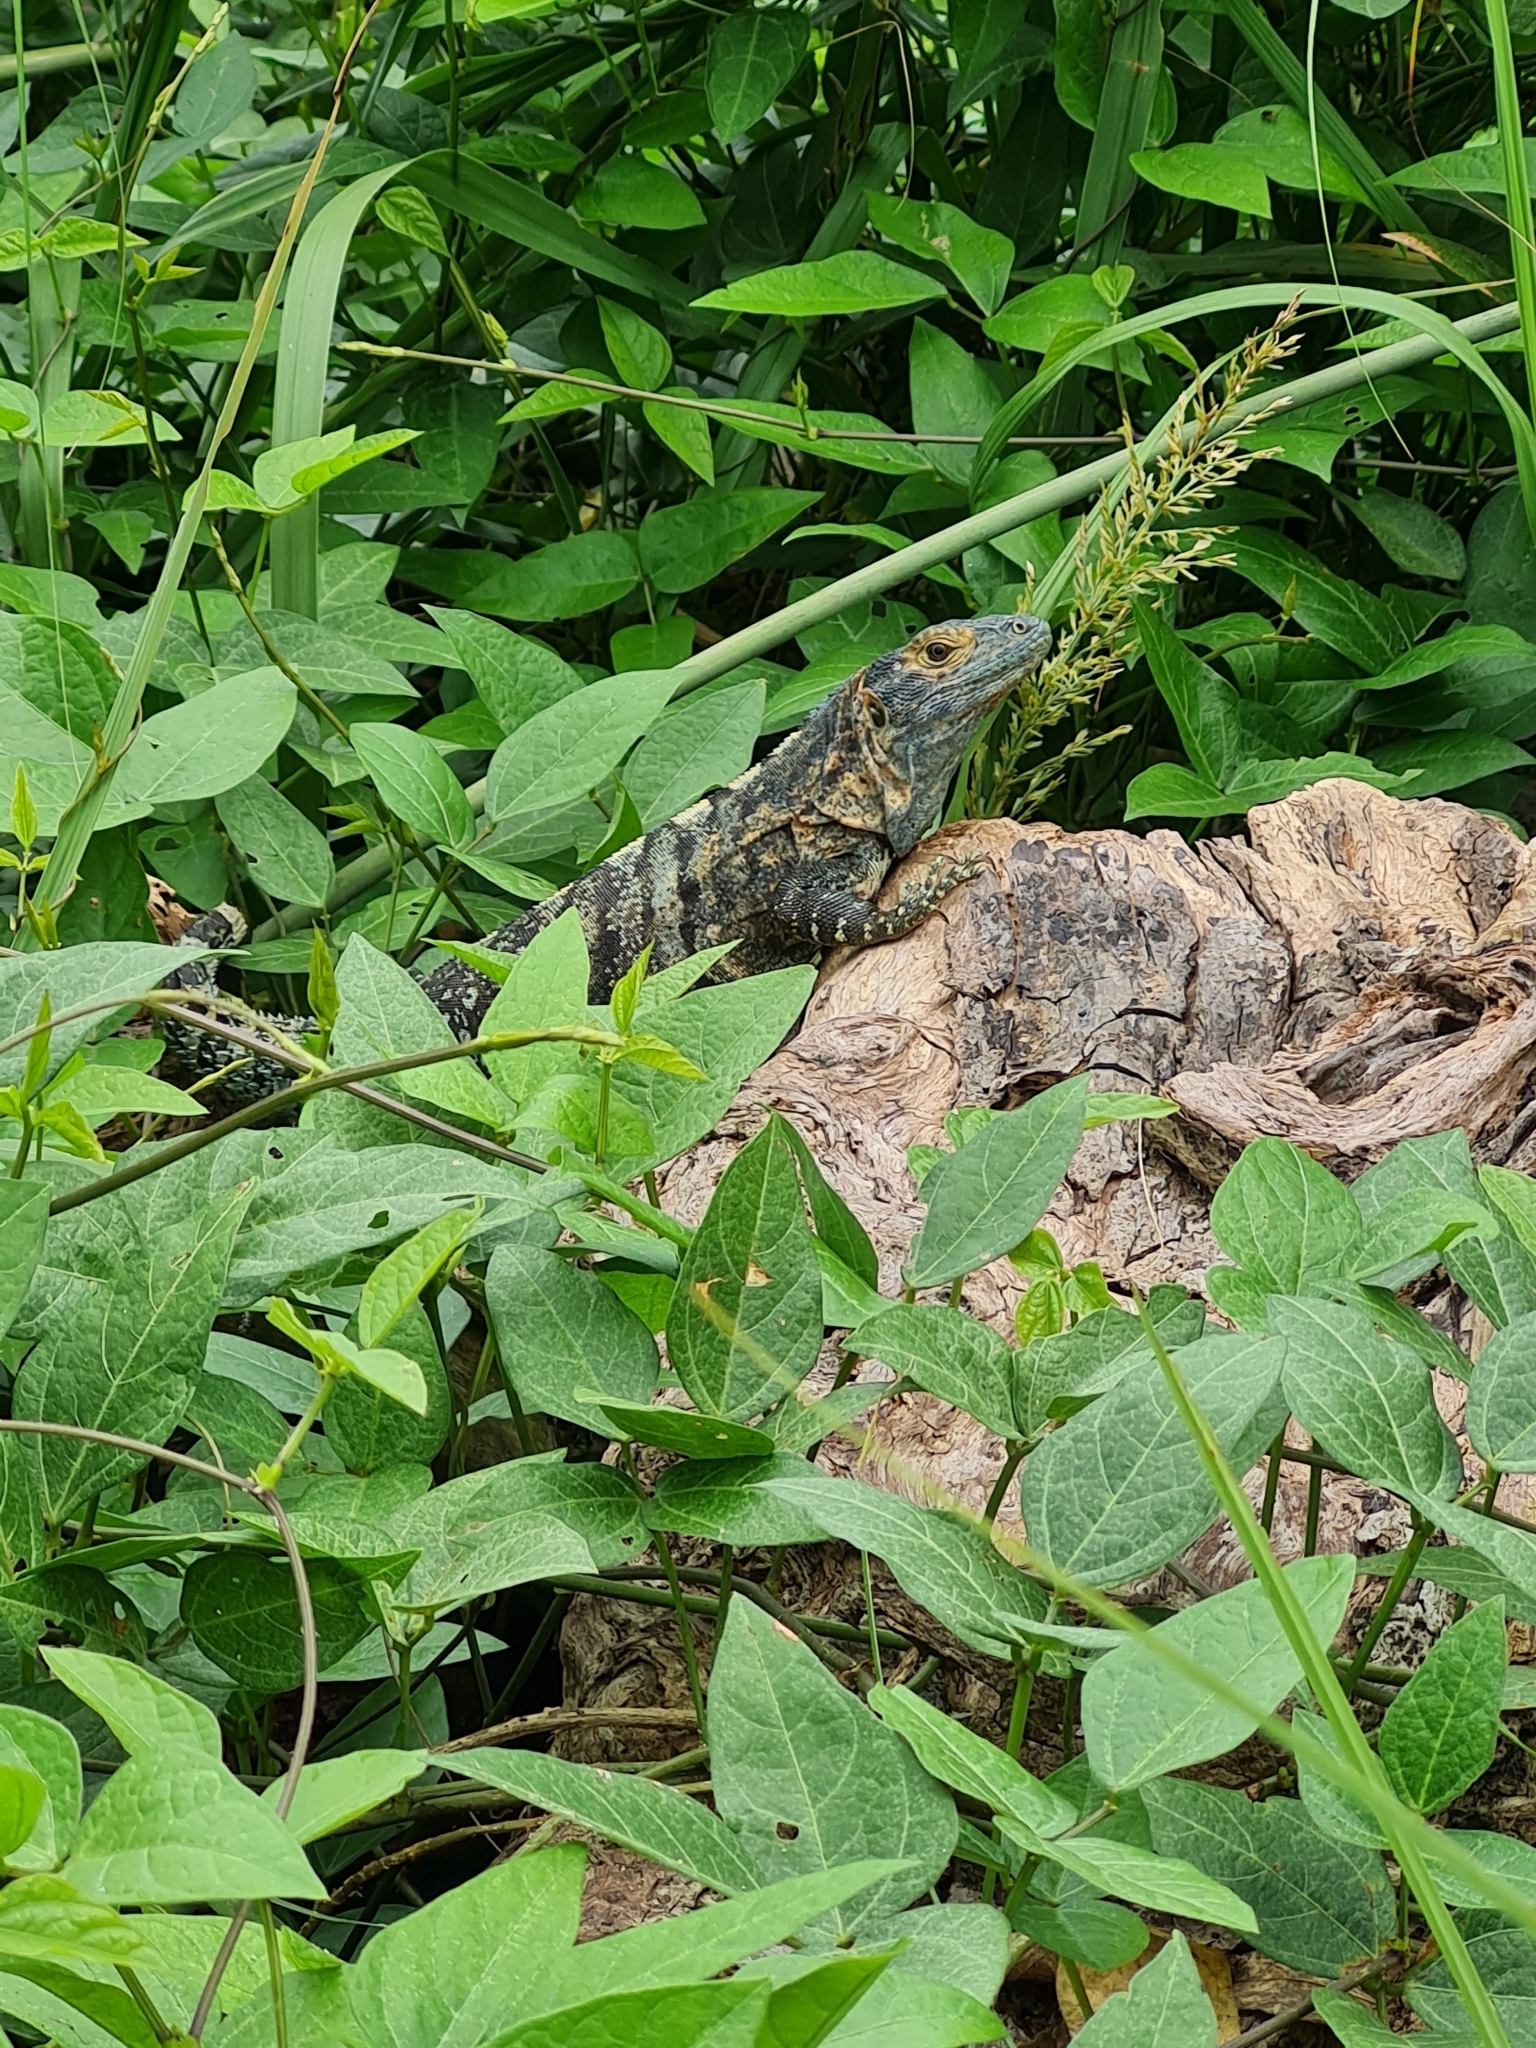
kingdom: Animalia
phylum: Chordata
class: Squamata
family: Iguanidae
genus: Ctenosaura
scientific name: Ctenosaura similis
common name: Black spiny-tailed iguana
